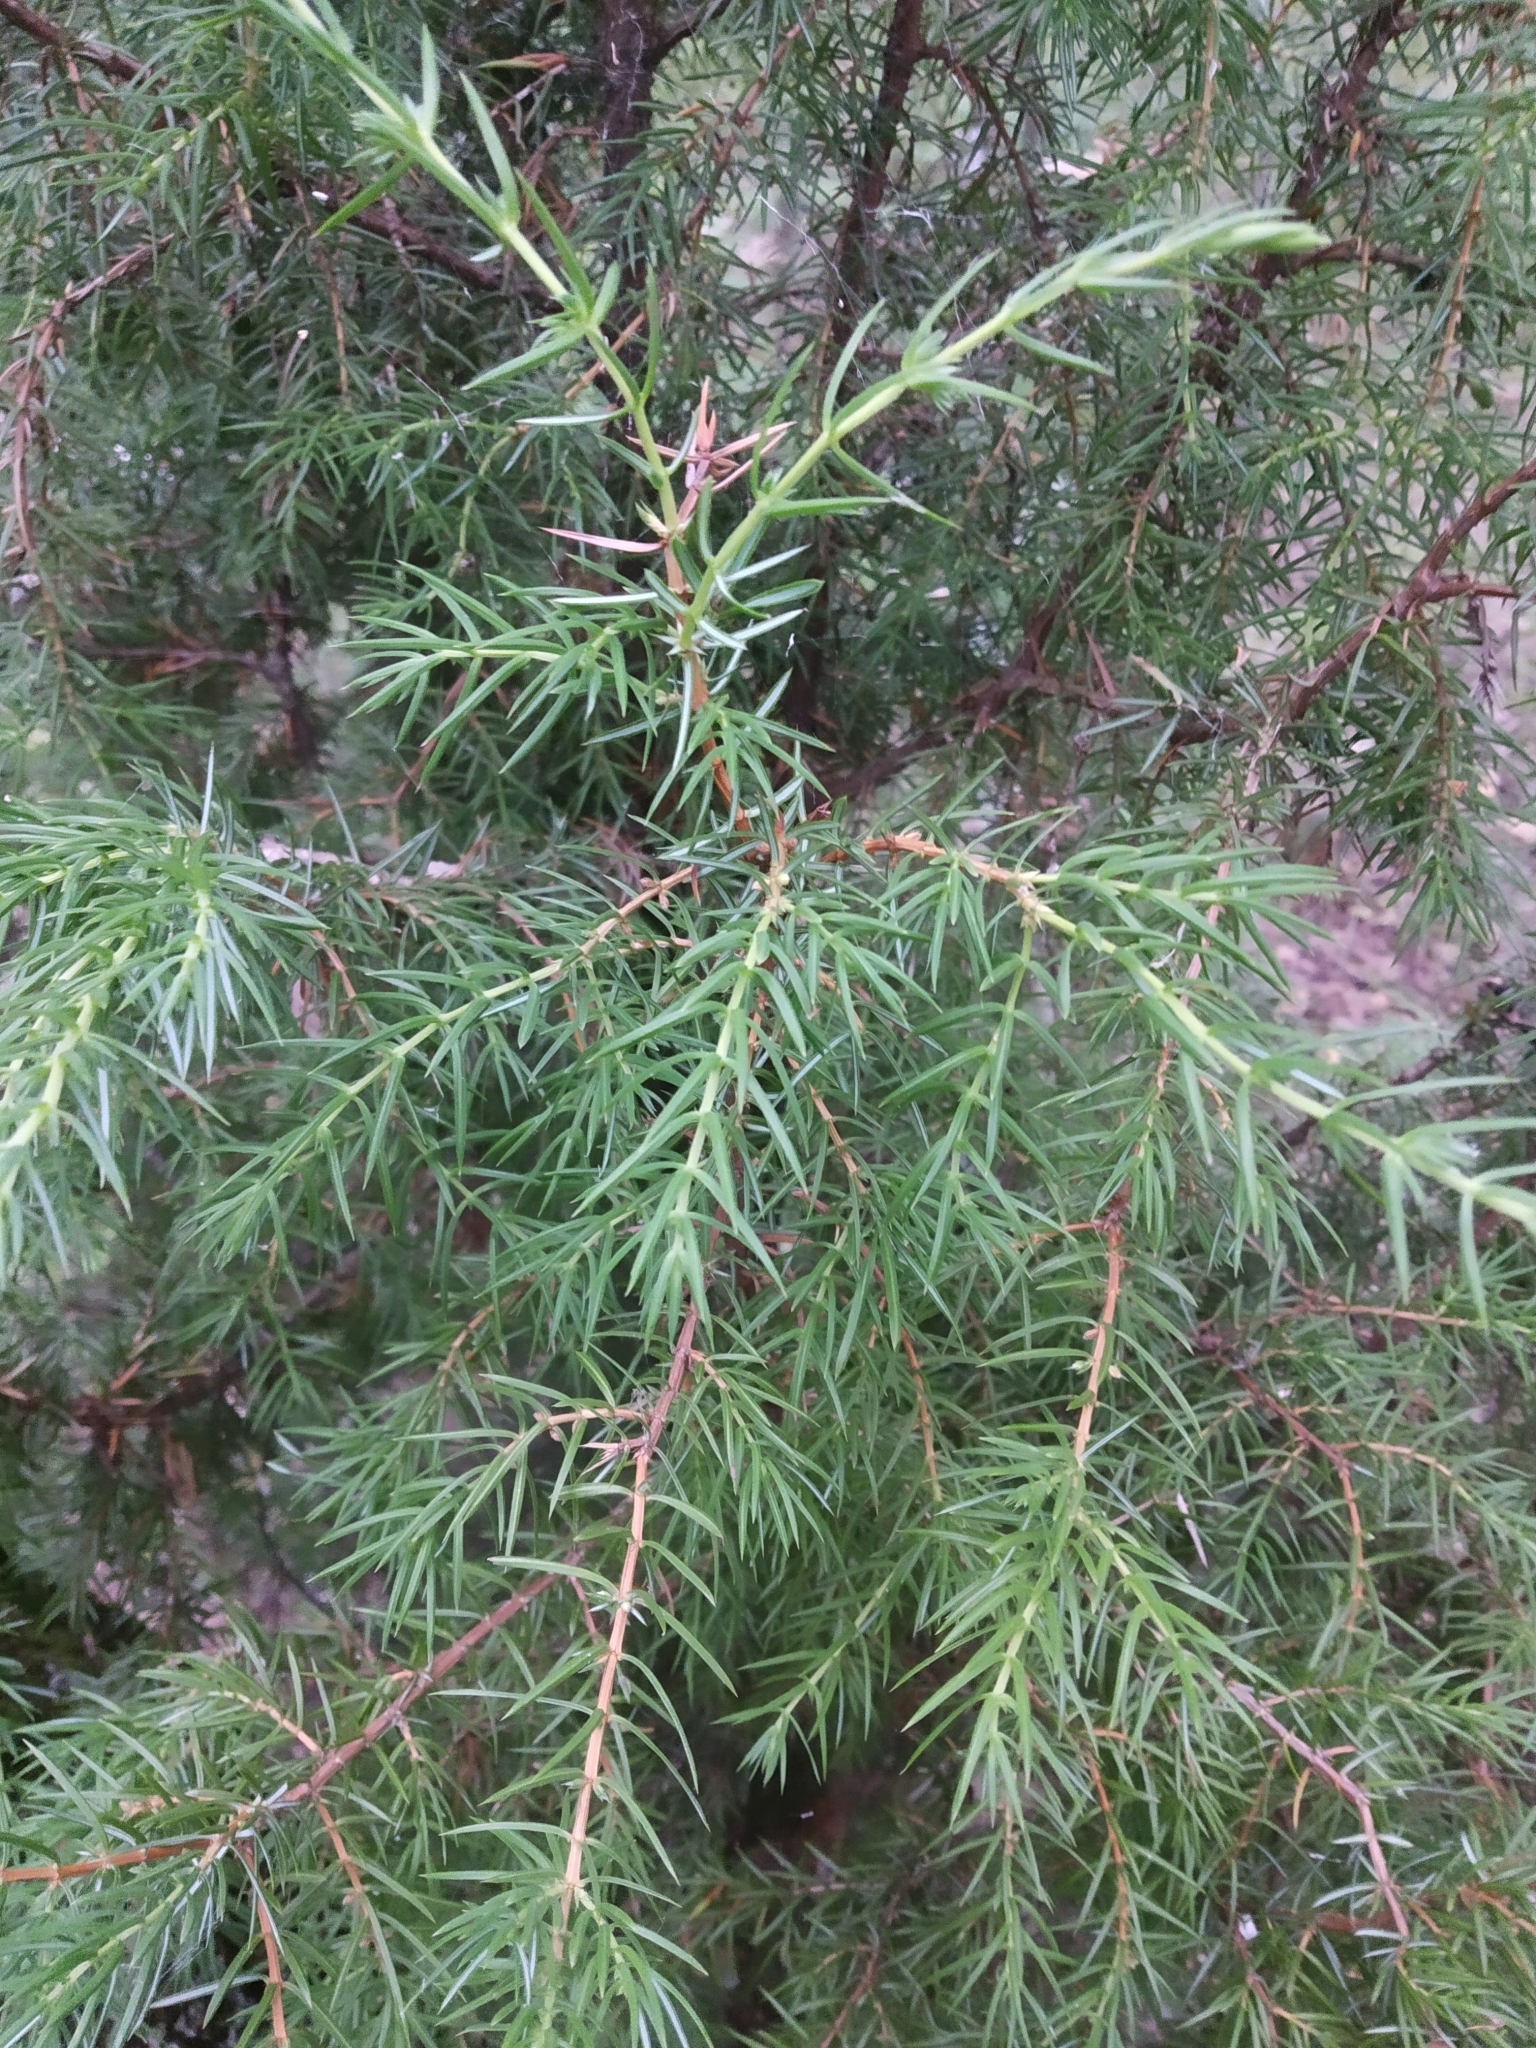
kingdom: Plantae
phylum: Tracheophyta
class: Pinopsida
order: Pinales
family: Cupressaceae
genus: Juniperus
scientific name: Juniperus communis
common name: Common juniper
